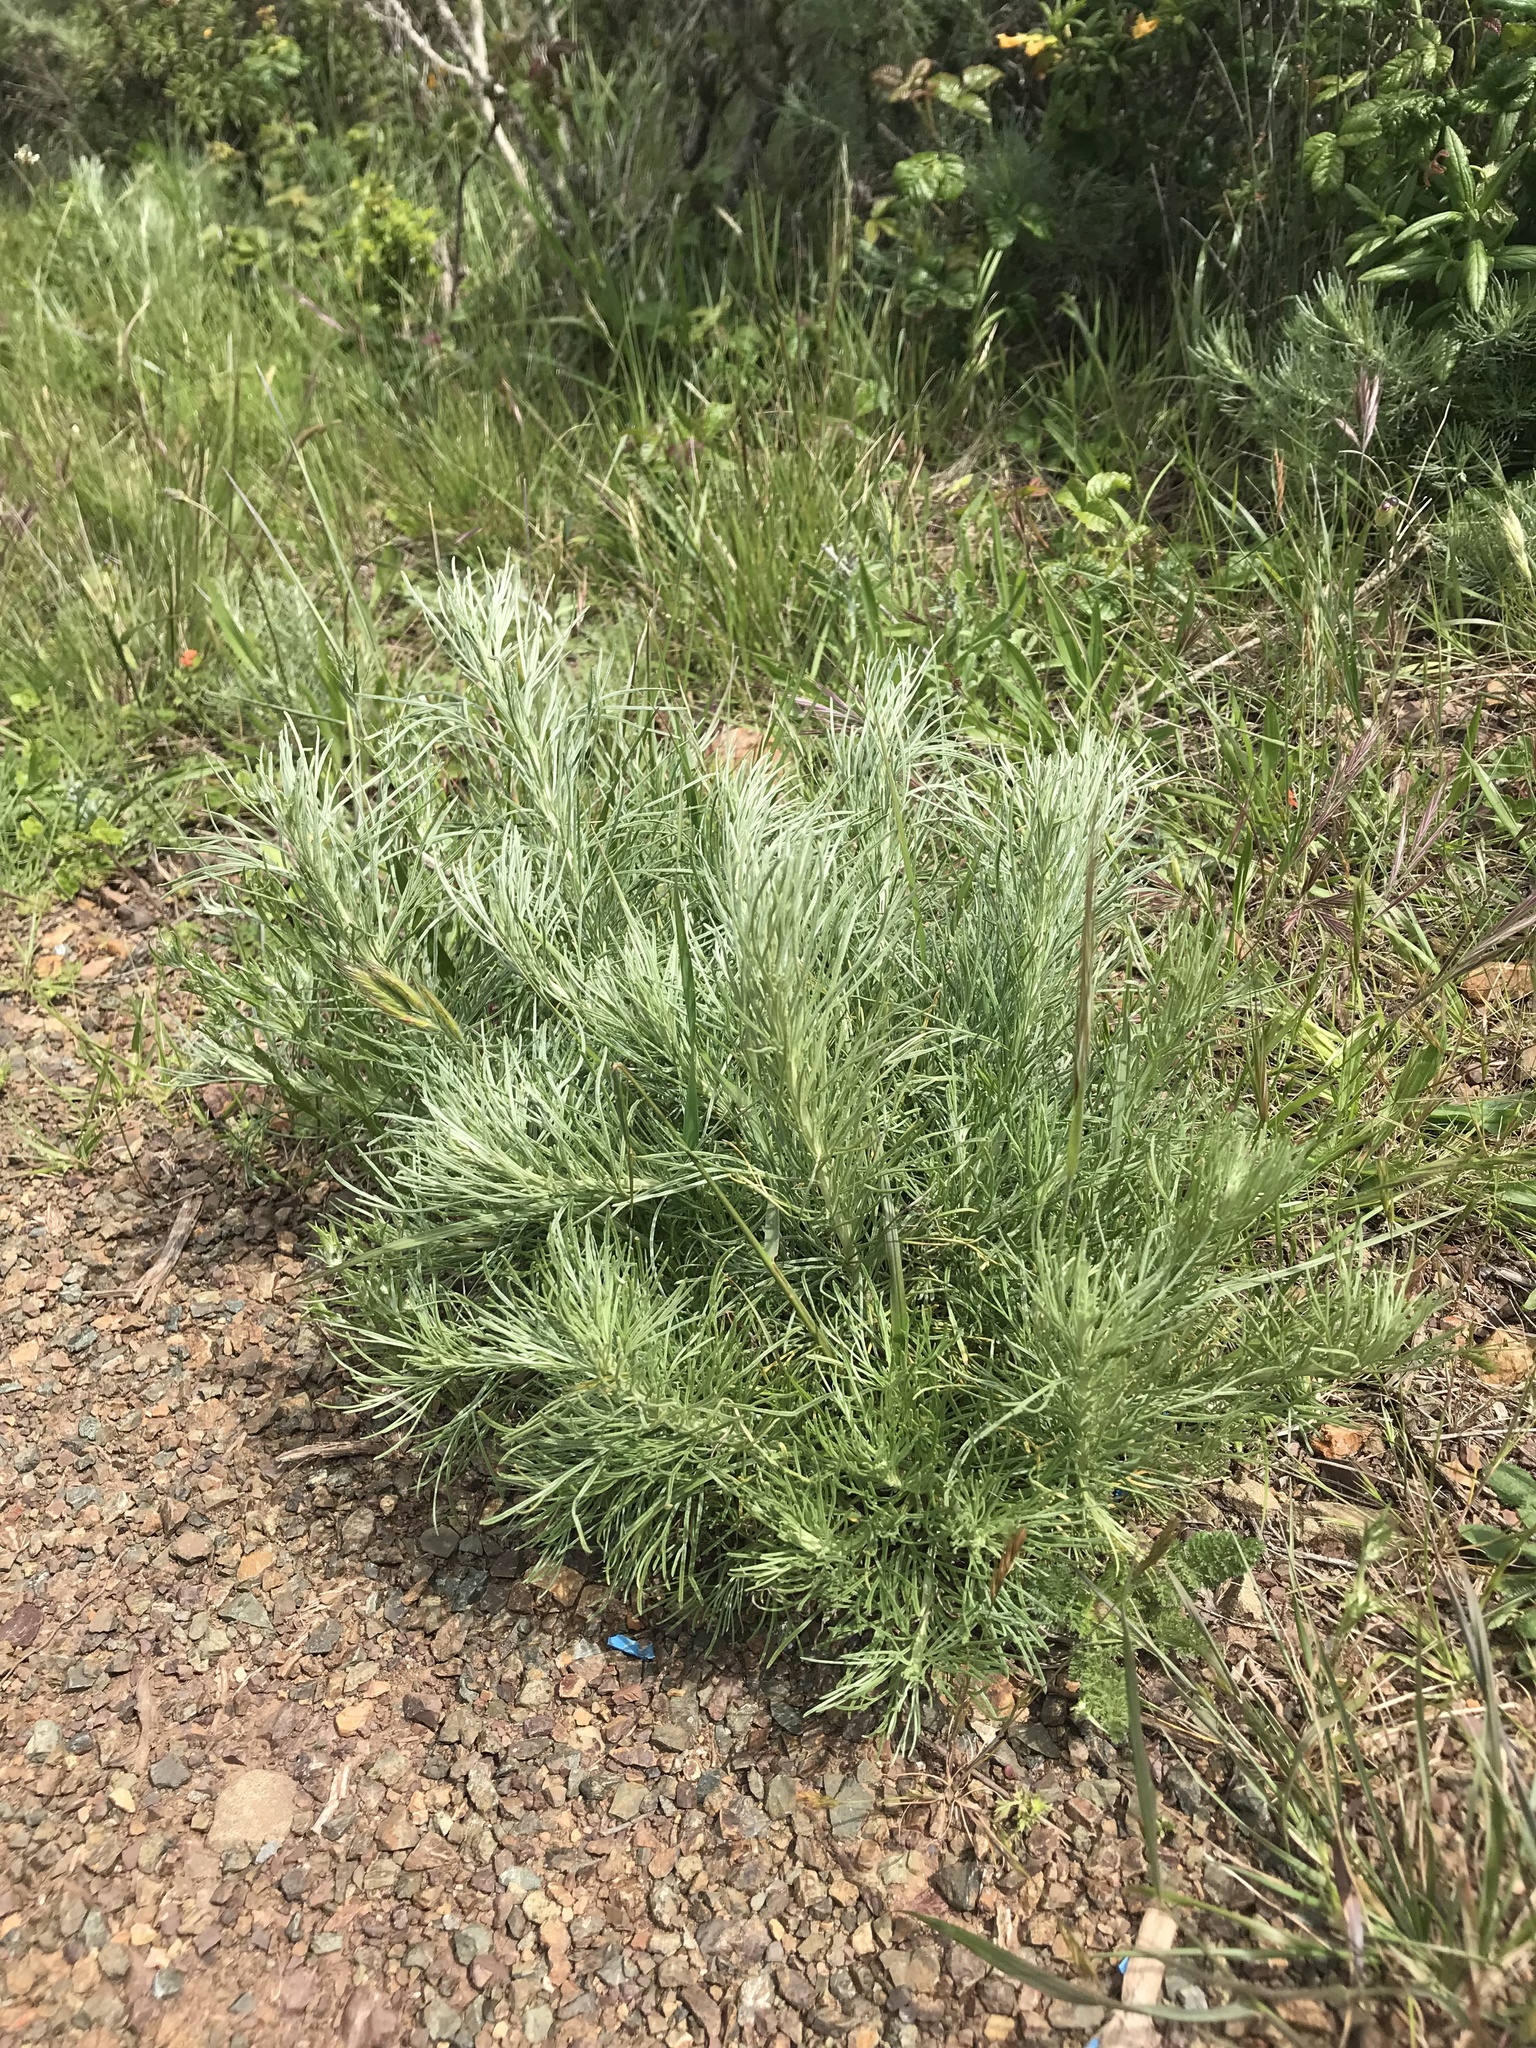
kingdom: Plantae
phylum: Tracheophyta
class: Magnoliopsida
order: Asterales
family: Asteraceae
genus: Artemisia
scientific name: Artemisia californica
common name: California sagebrush
